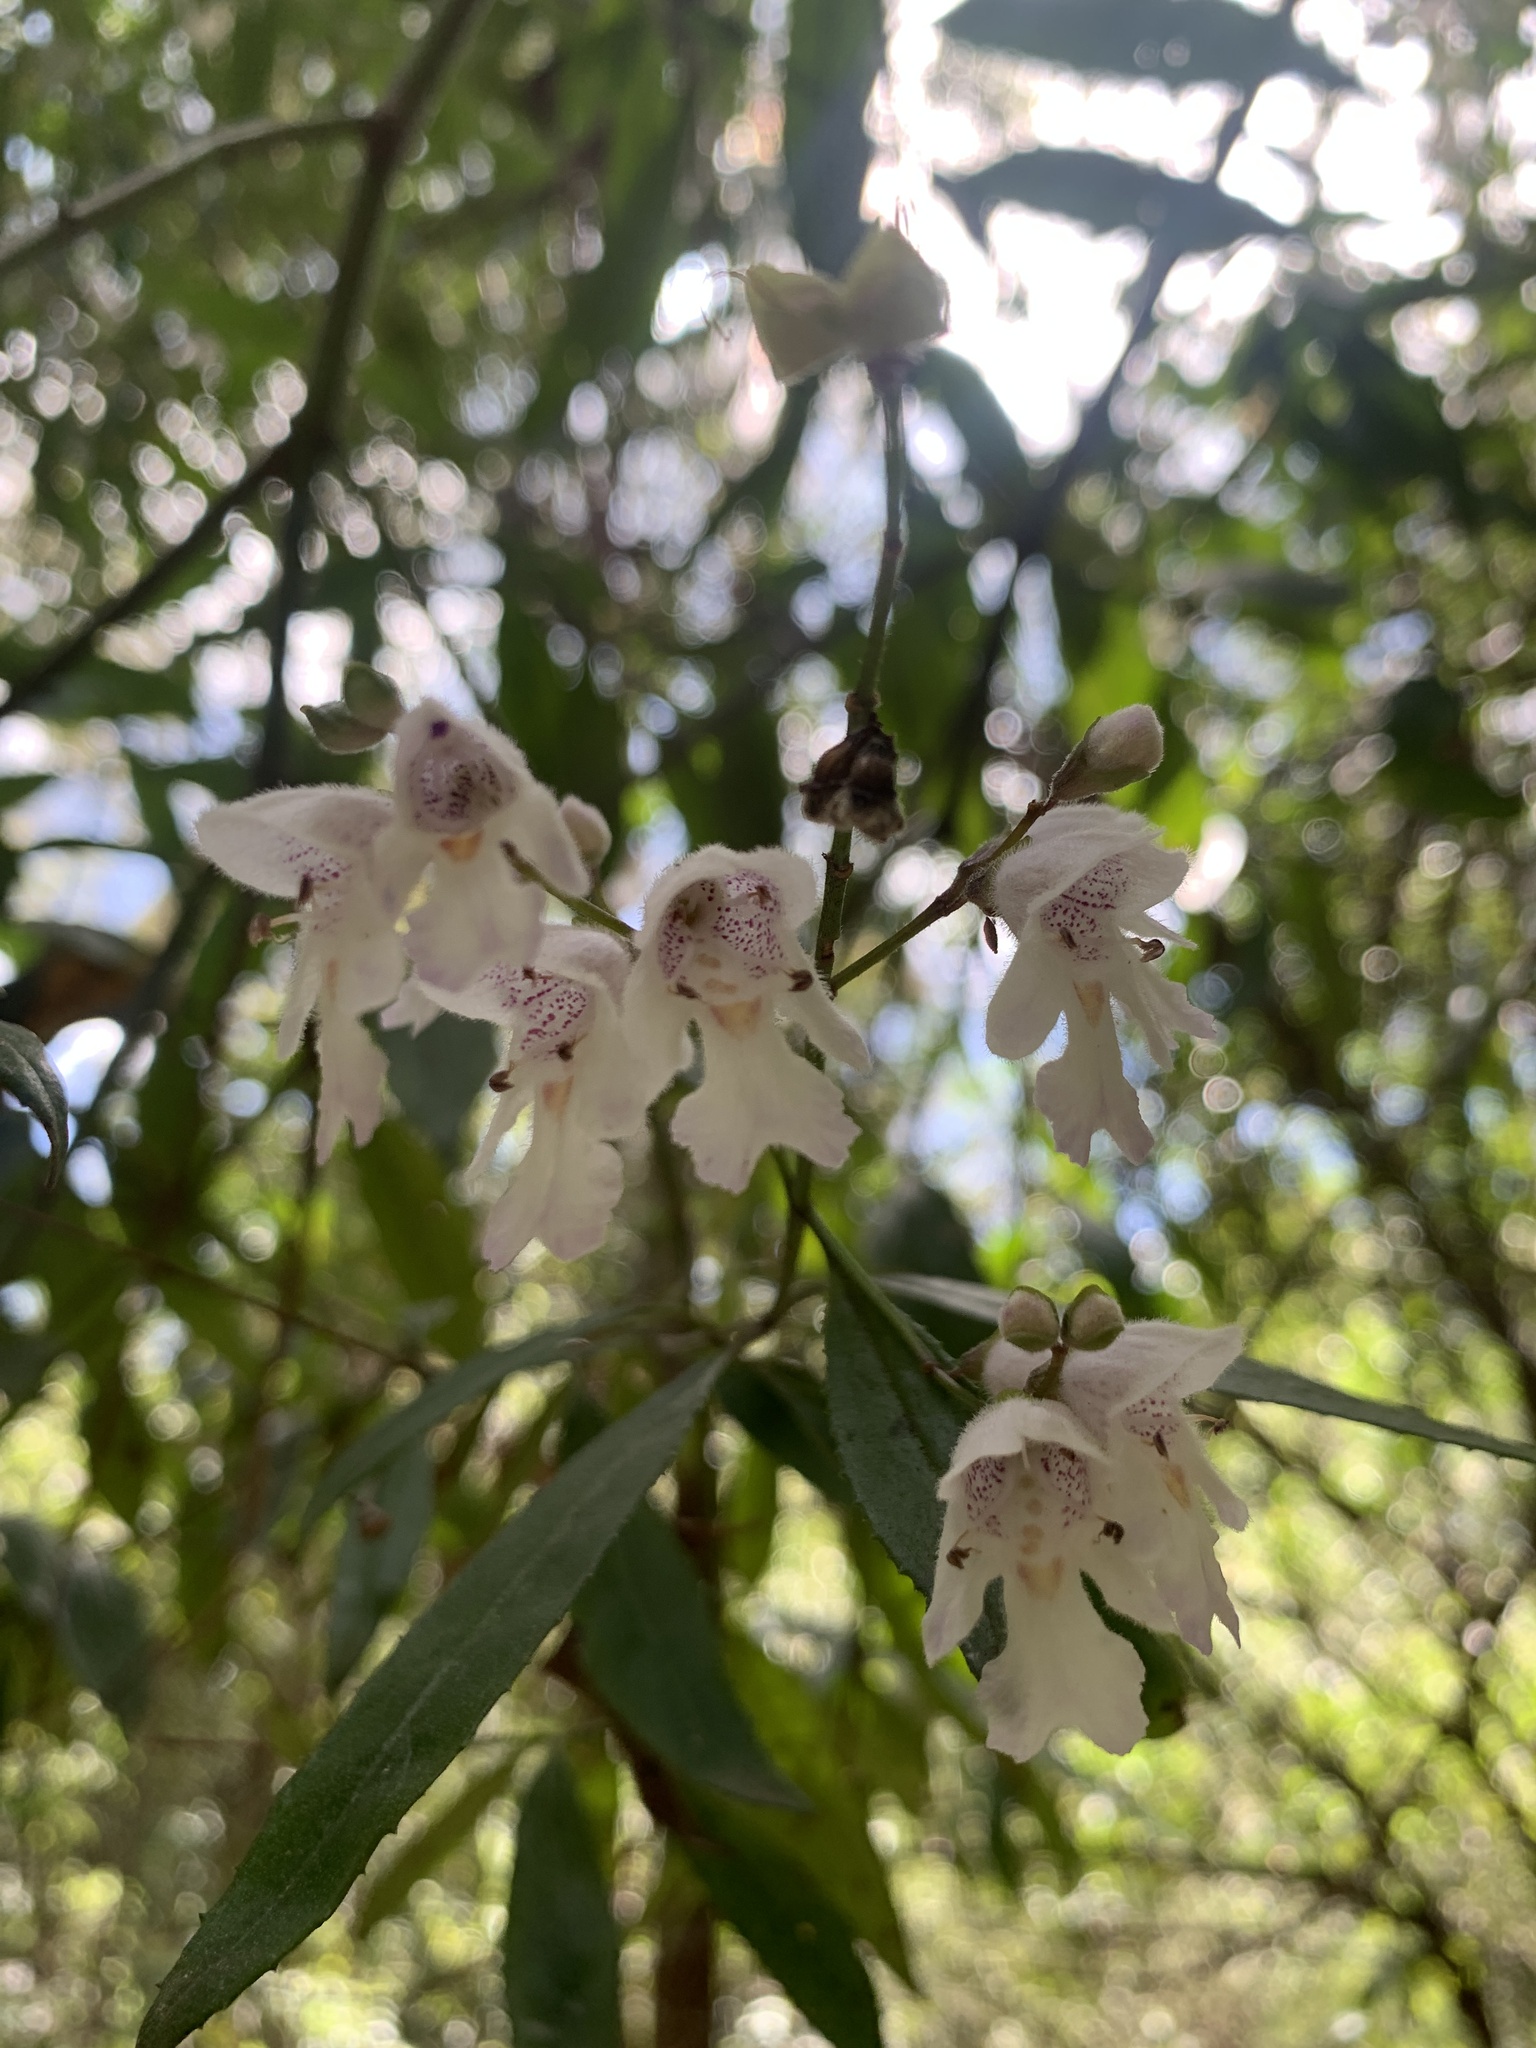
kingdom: Plantae
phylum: Tracheophyta
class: Magnoliopsida
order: Lamiales
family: Lamiaceae
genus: Prostanthera
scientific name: Prostanthera
